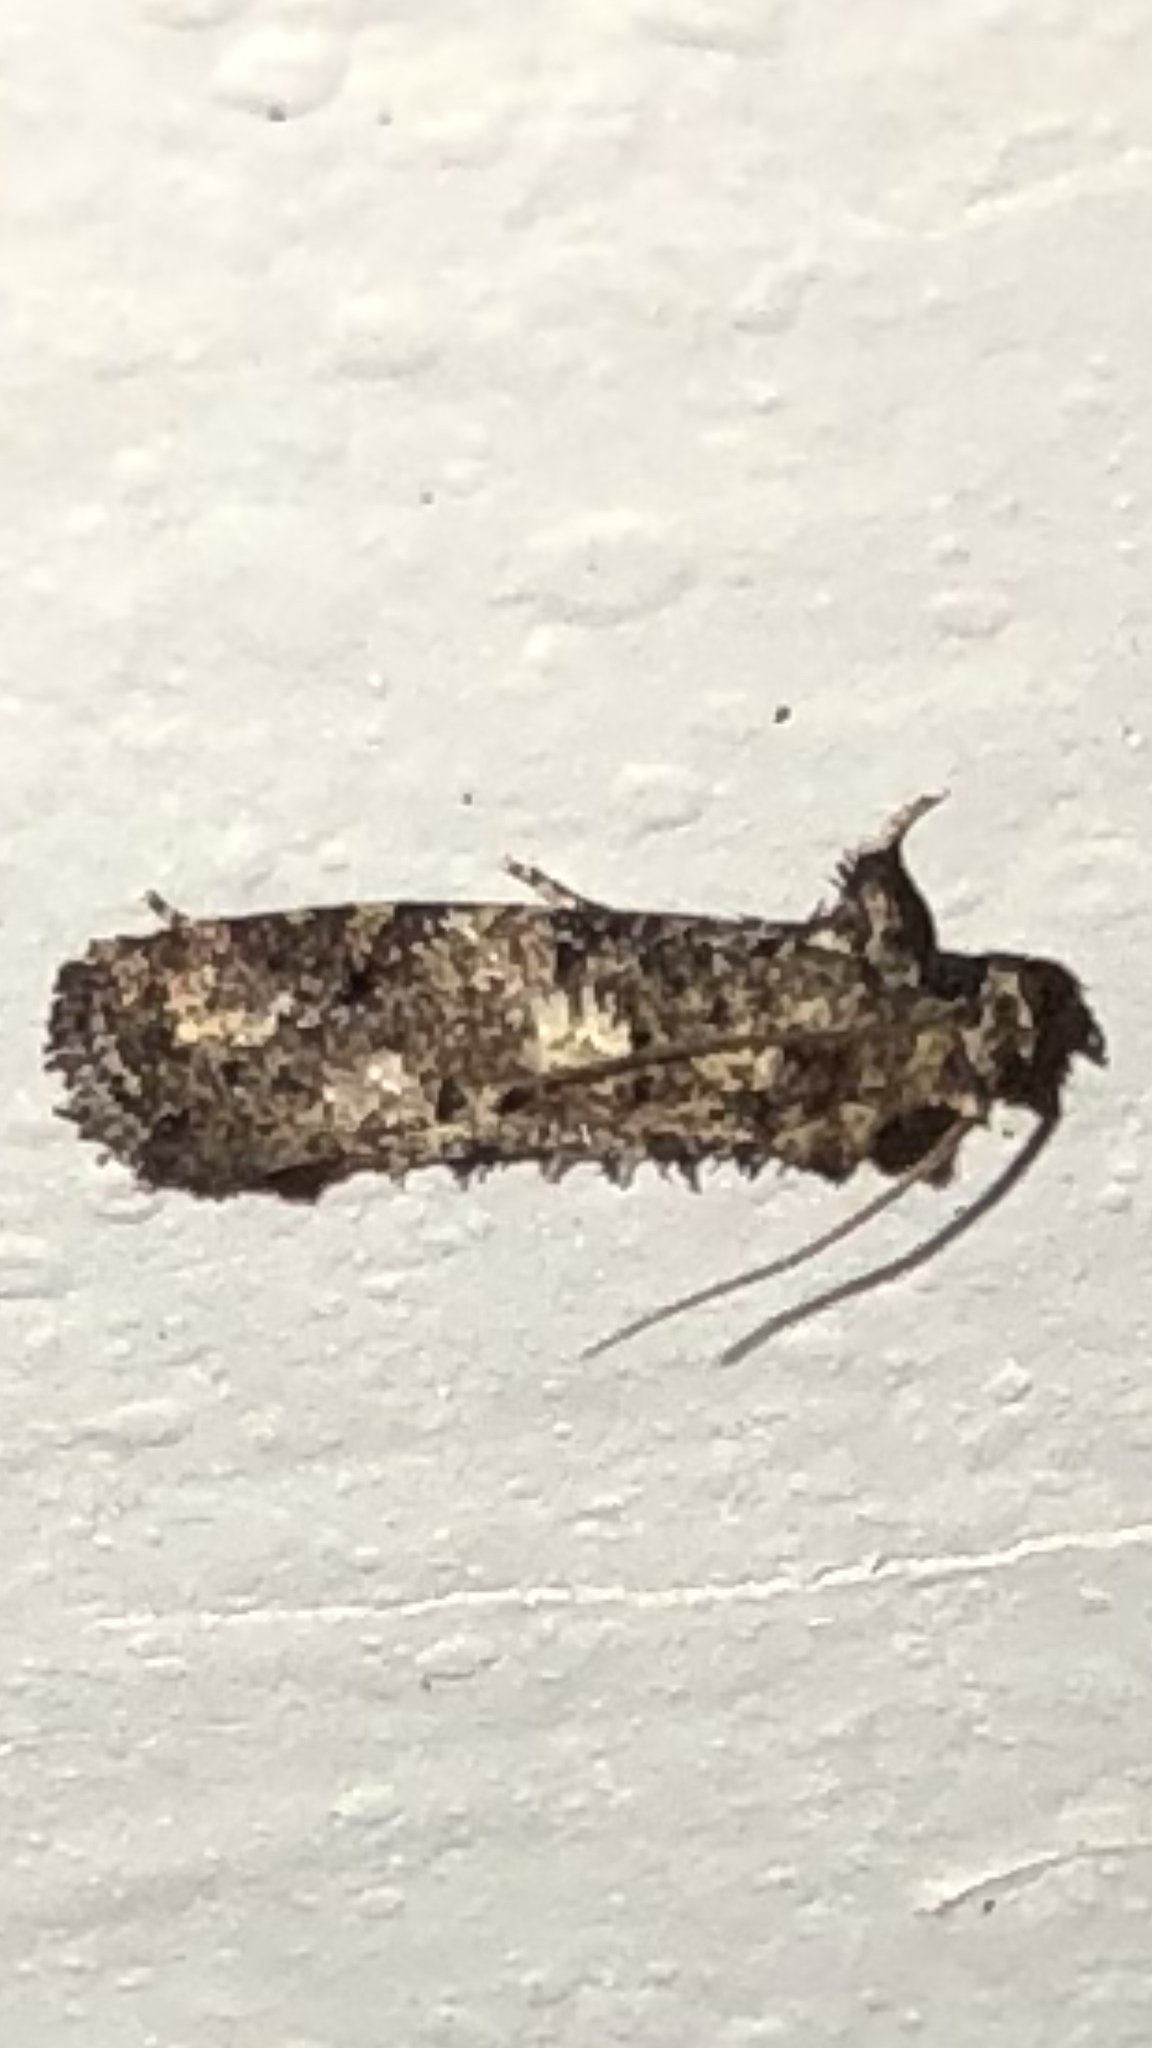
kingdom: Animalia
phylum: Arthropoda
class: Insecta
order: Lepidoptera
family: Tineidae
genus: Acrolophus
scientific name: Acrolophus cressoni
